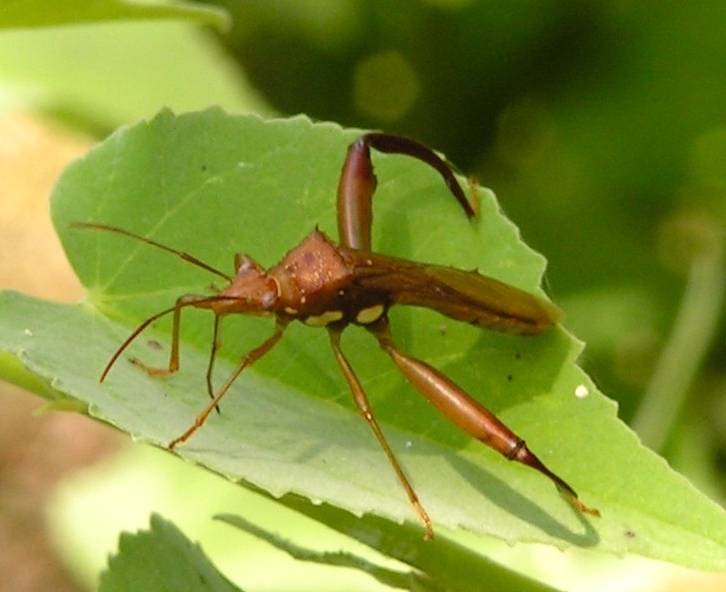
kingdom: Animalia
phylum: Arthropoda
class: Insecta
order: Hemiptera
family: Alydidae
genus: Hyalymenus
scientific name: Hyalymenus
